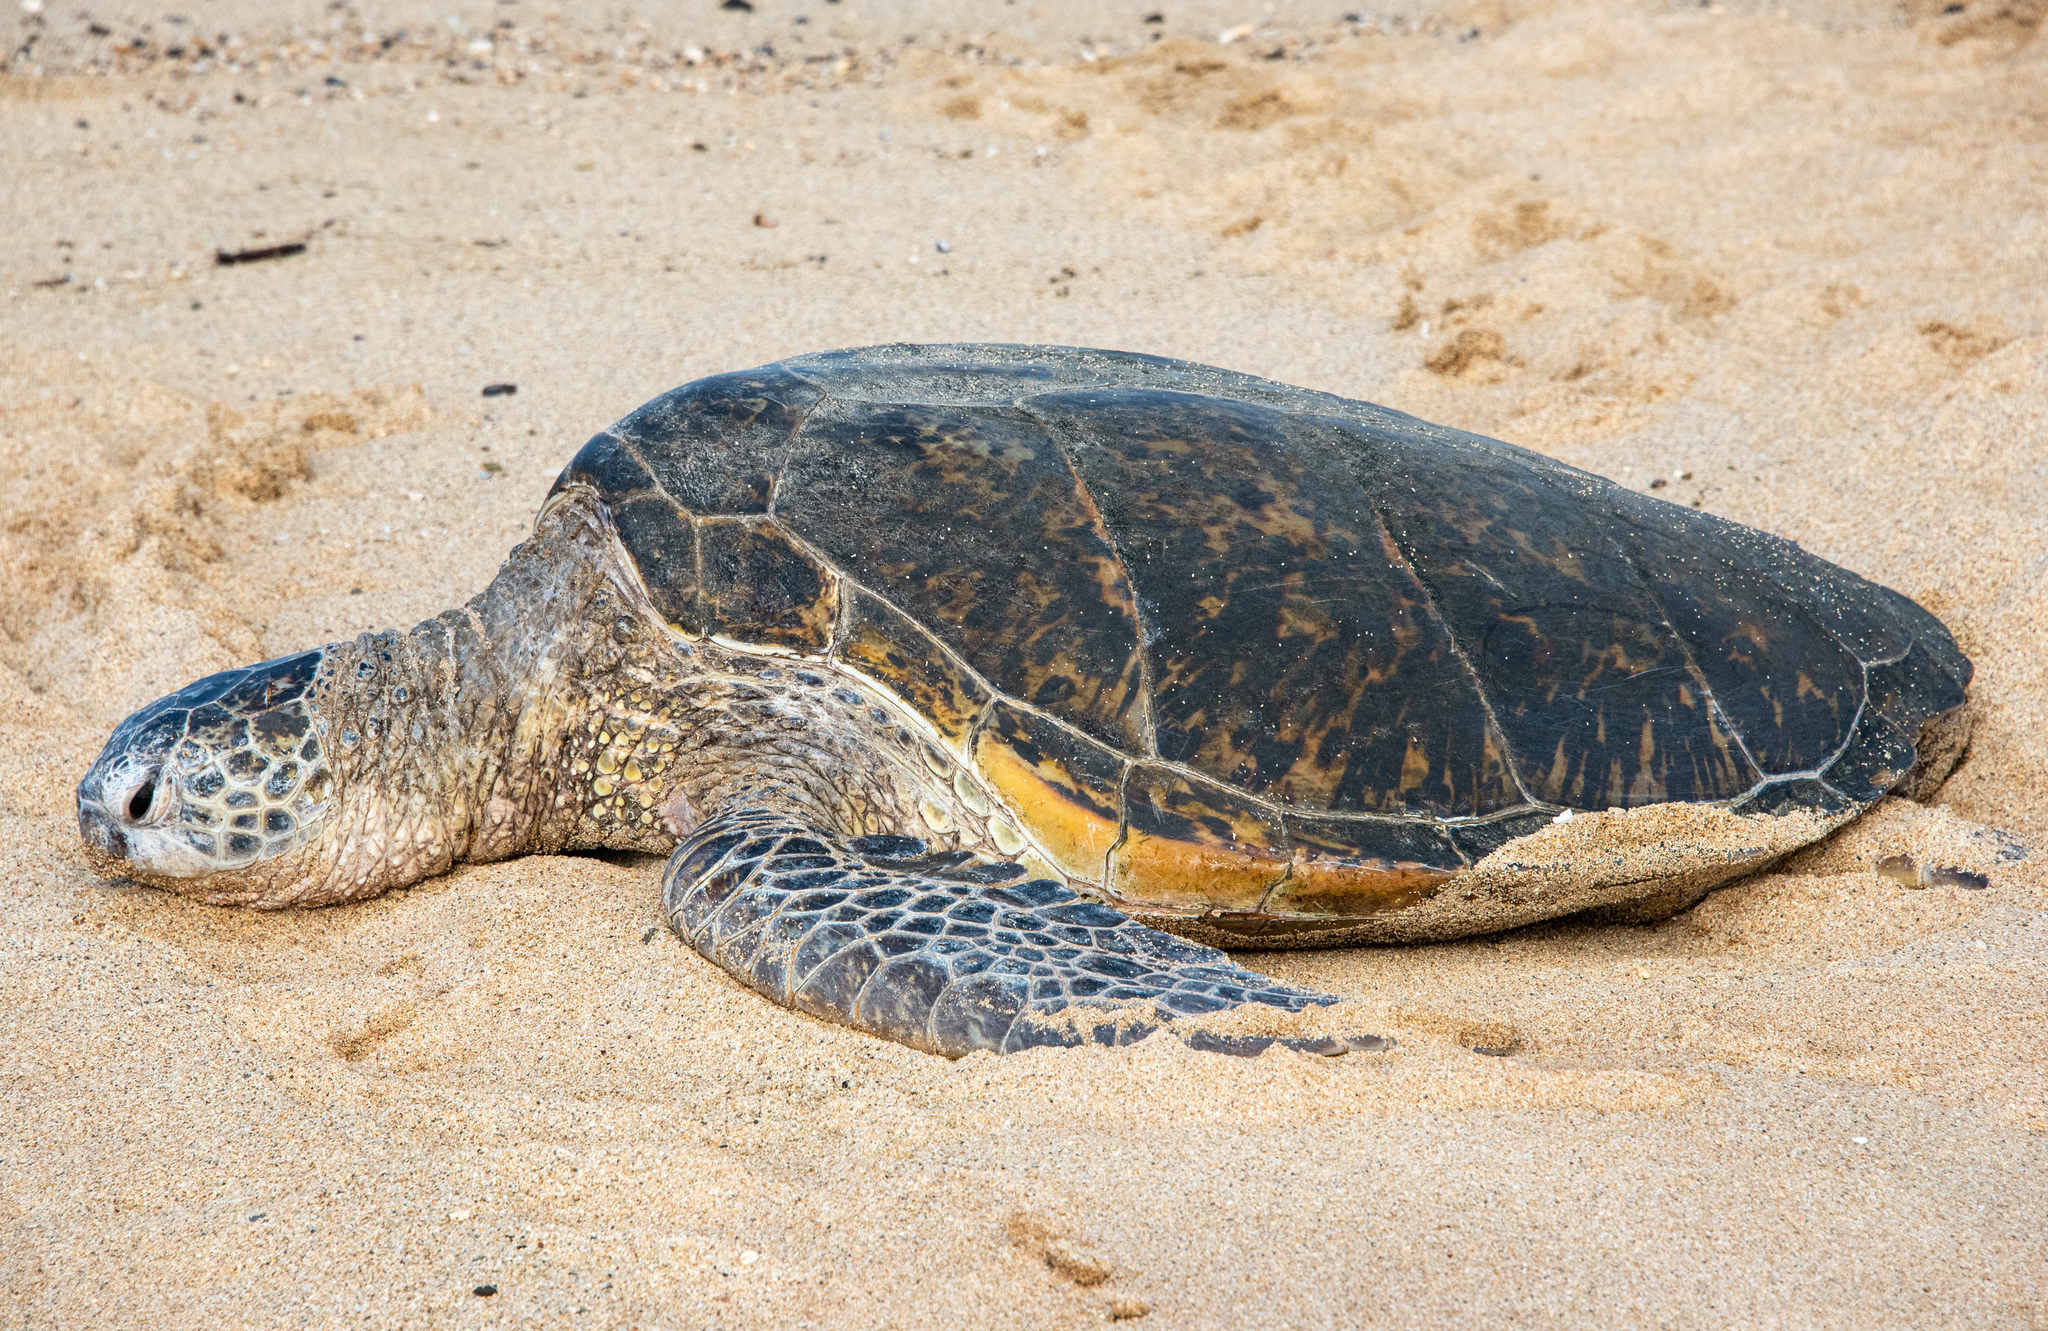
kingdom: Animalia
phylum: Chordata
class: Testudines
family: Cheloniidae
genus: Chelonia
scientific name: Chelonia mydas
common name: Green turtle
